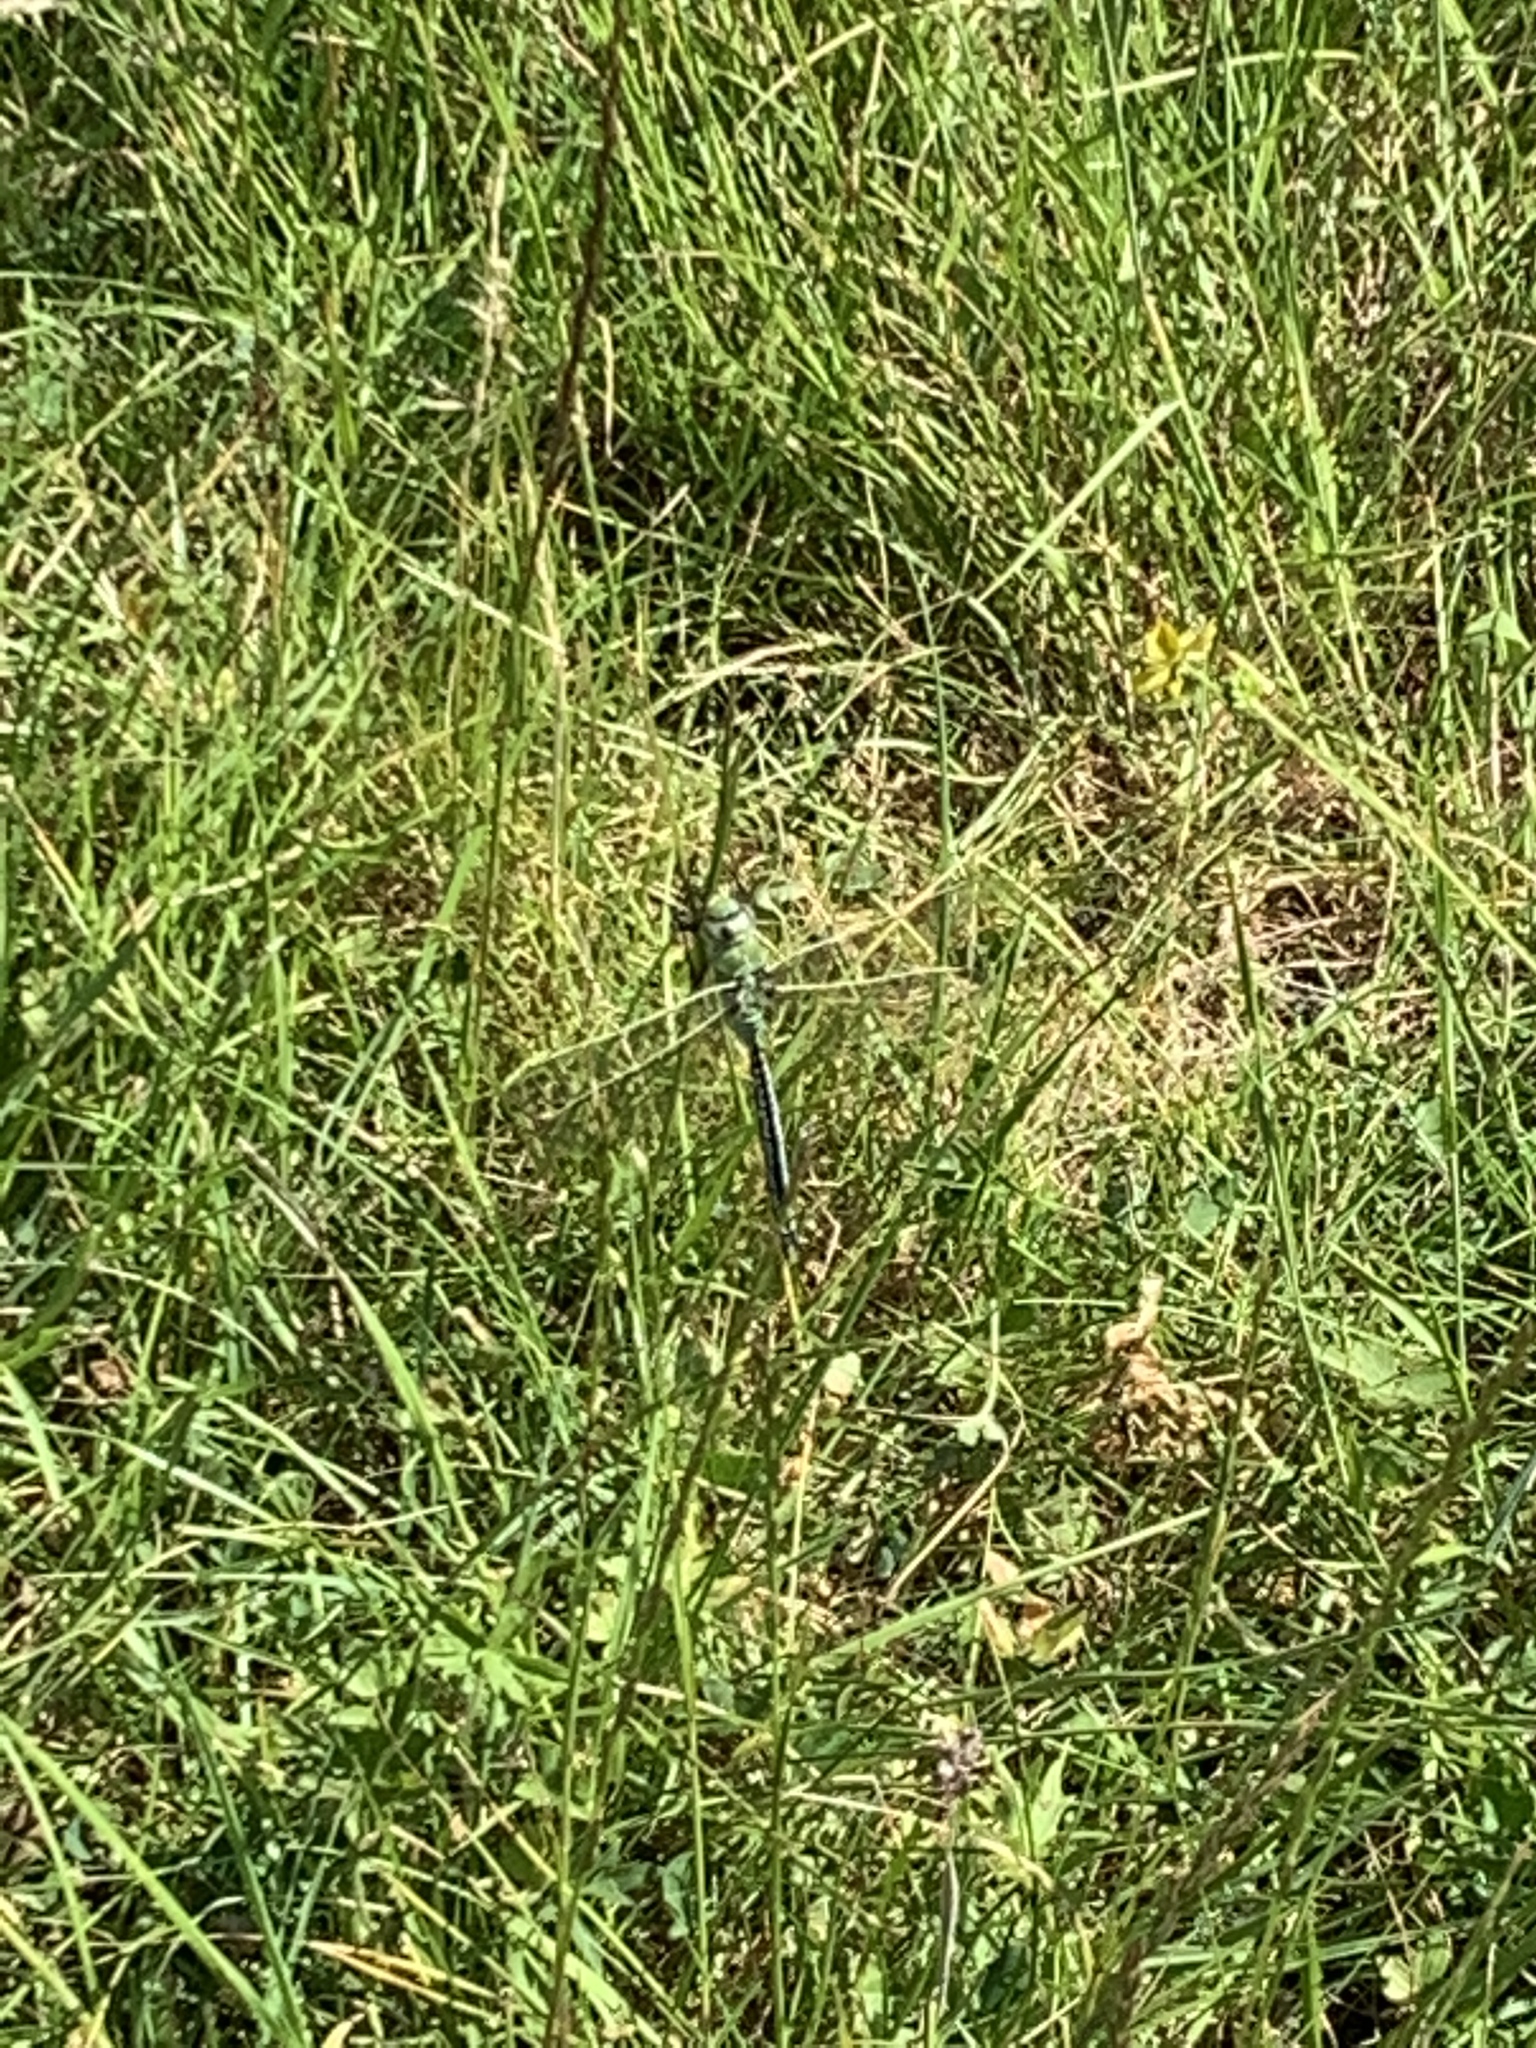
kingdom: Animalia
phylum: Arthropoda
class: Insecta
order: Odonata
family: Aeshnidae
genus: Anax
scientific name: Anax imperator
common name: Emperor dragonfly
